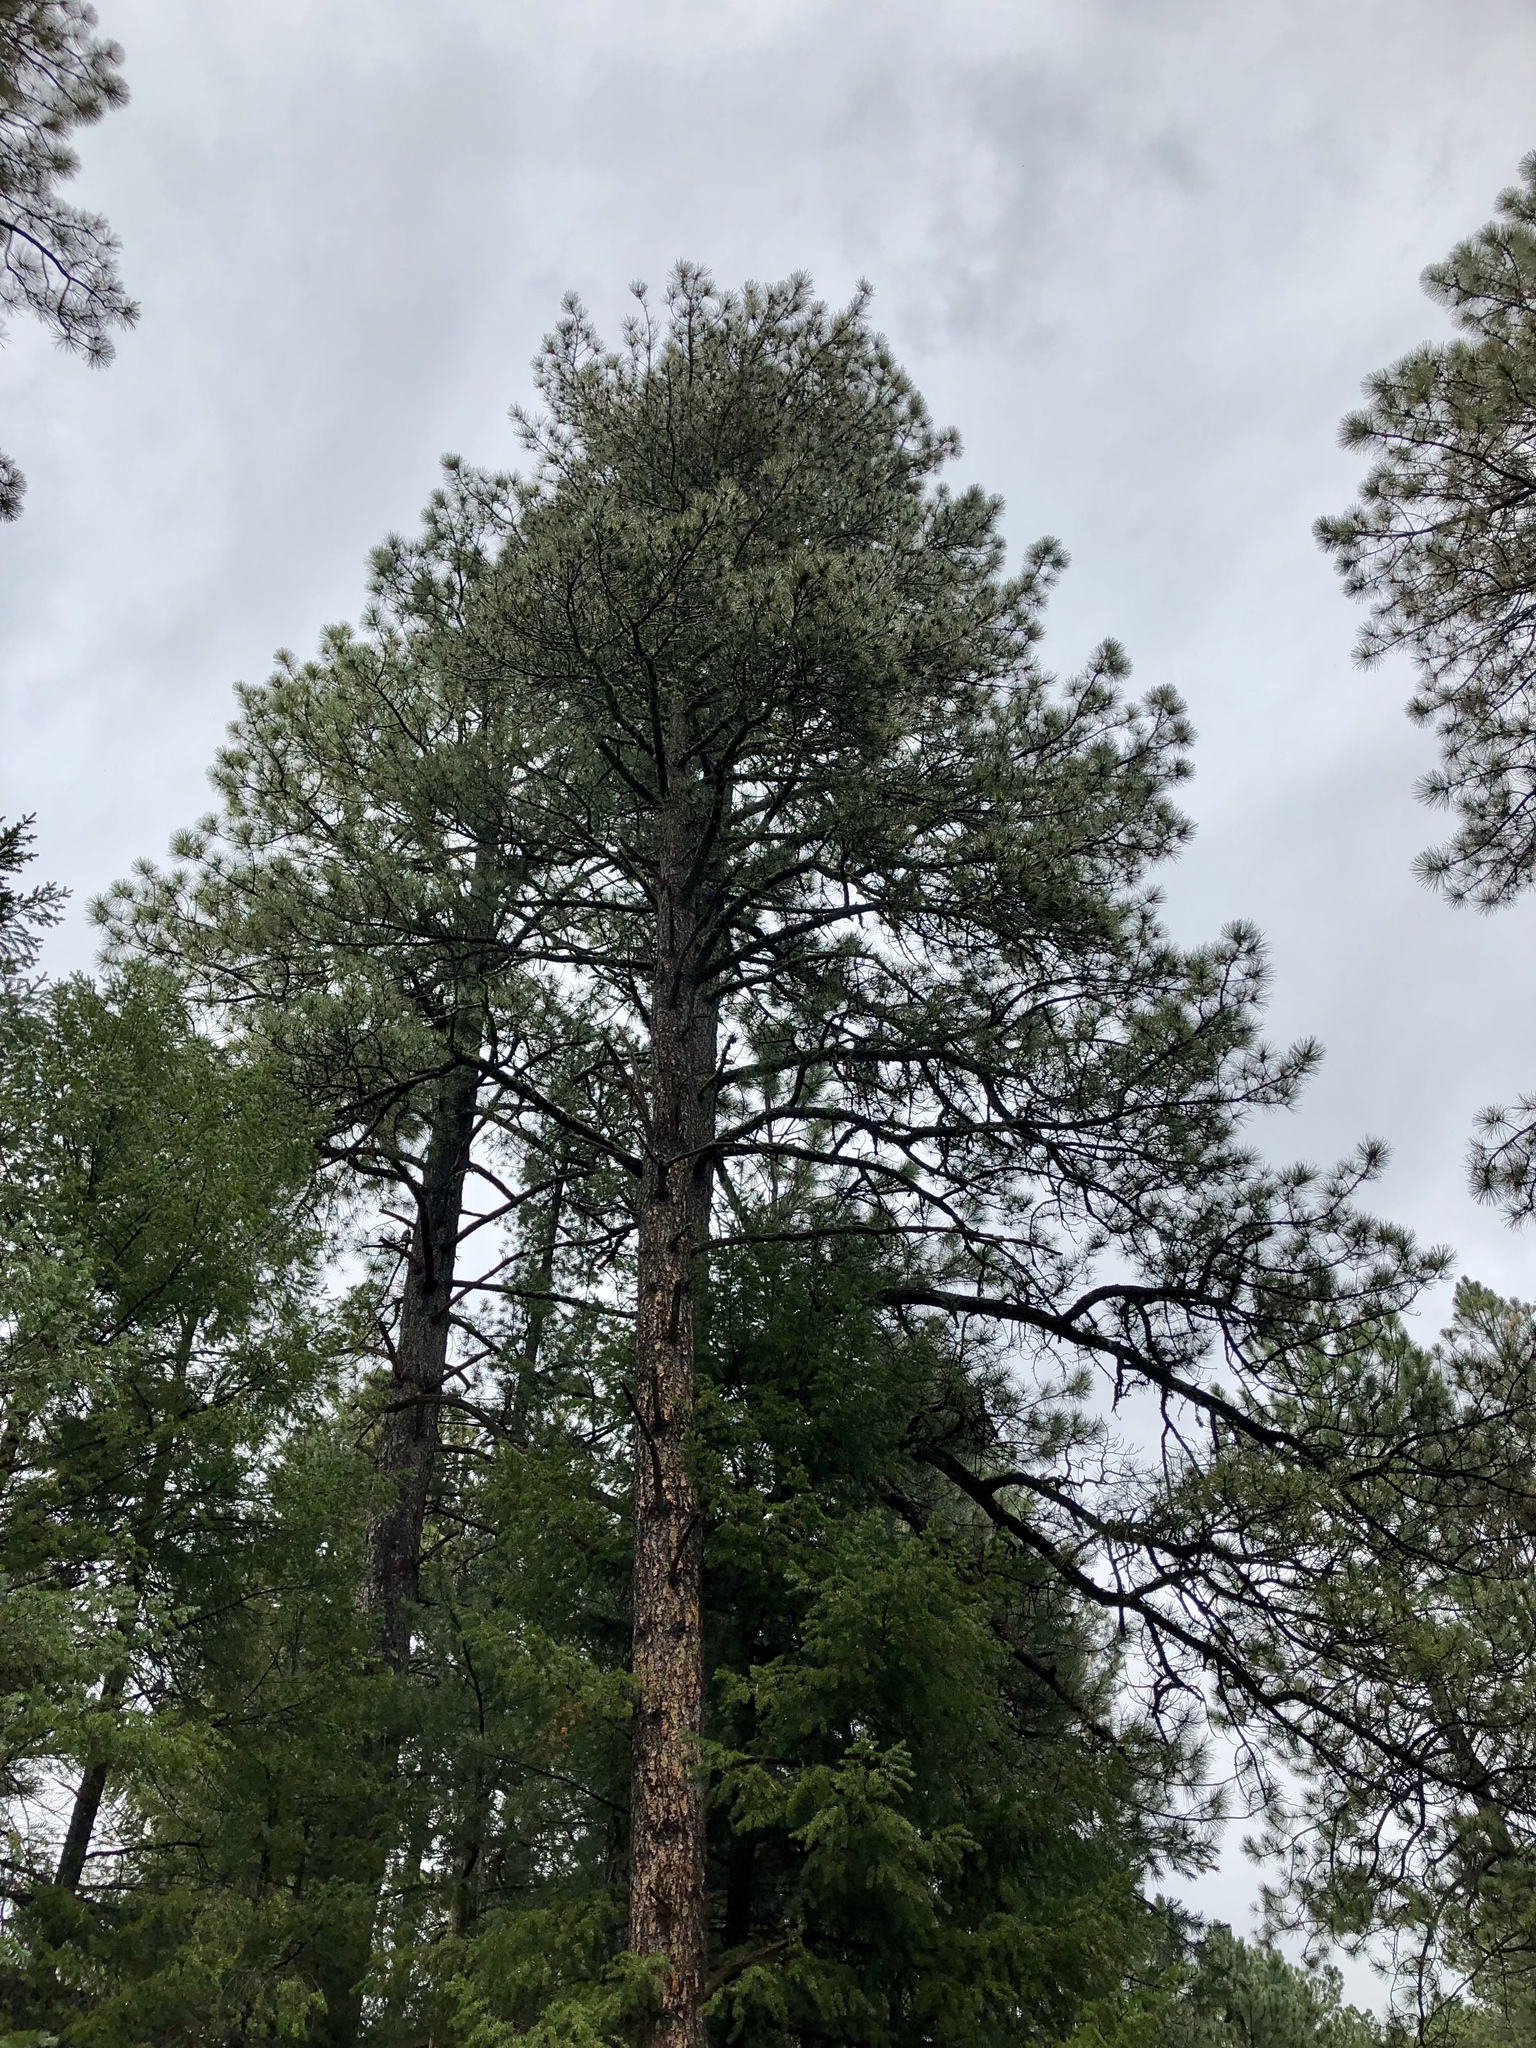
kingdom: Plantae
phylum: Tracheophyta
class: Pinopsida
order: Pinales
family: Pinaceae
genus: Pinus
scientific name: Pinus ponderosa
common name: Western yellow-pine
